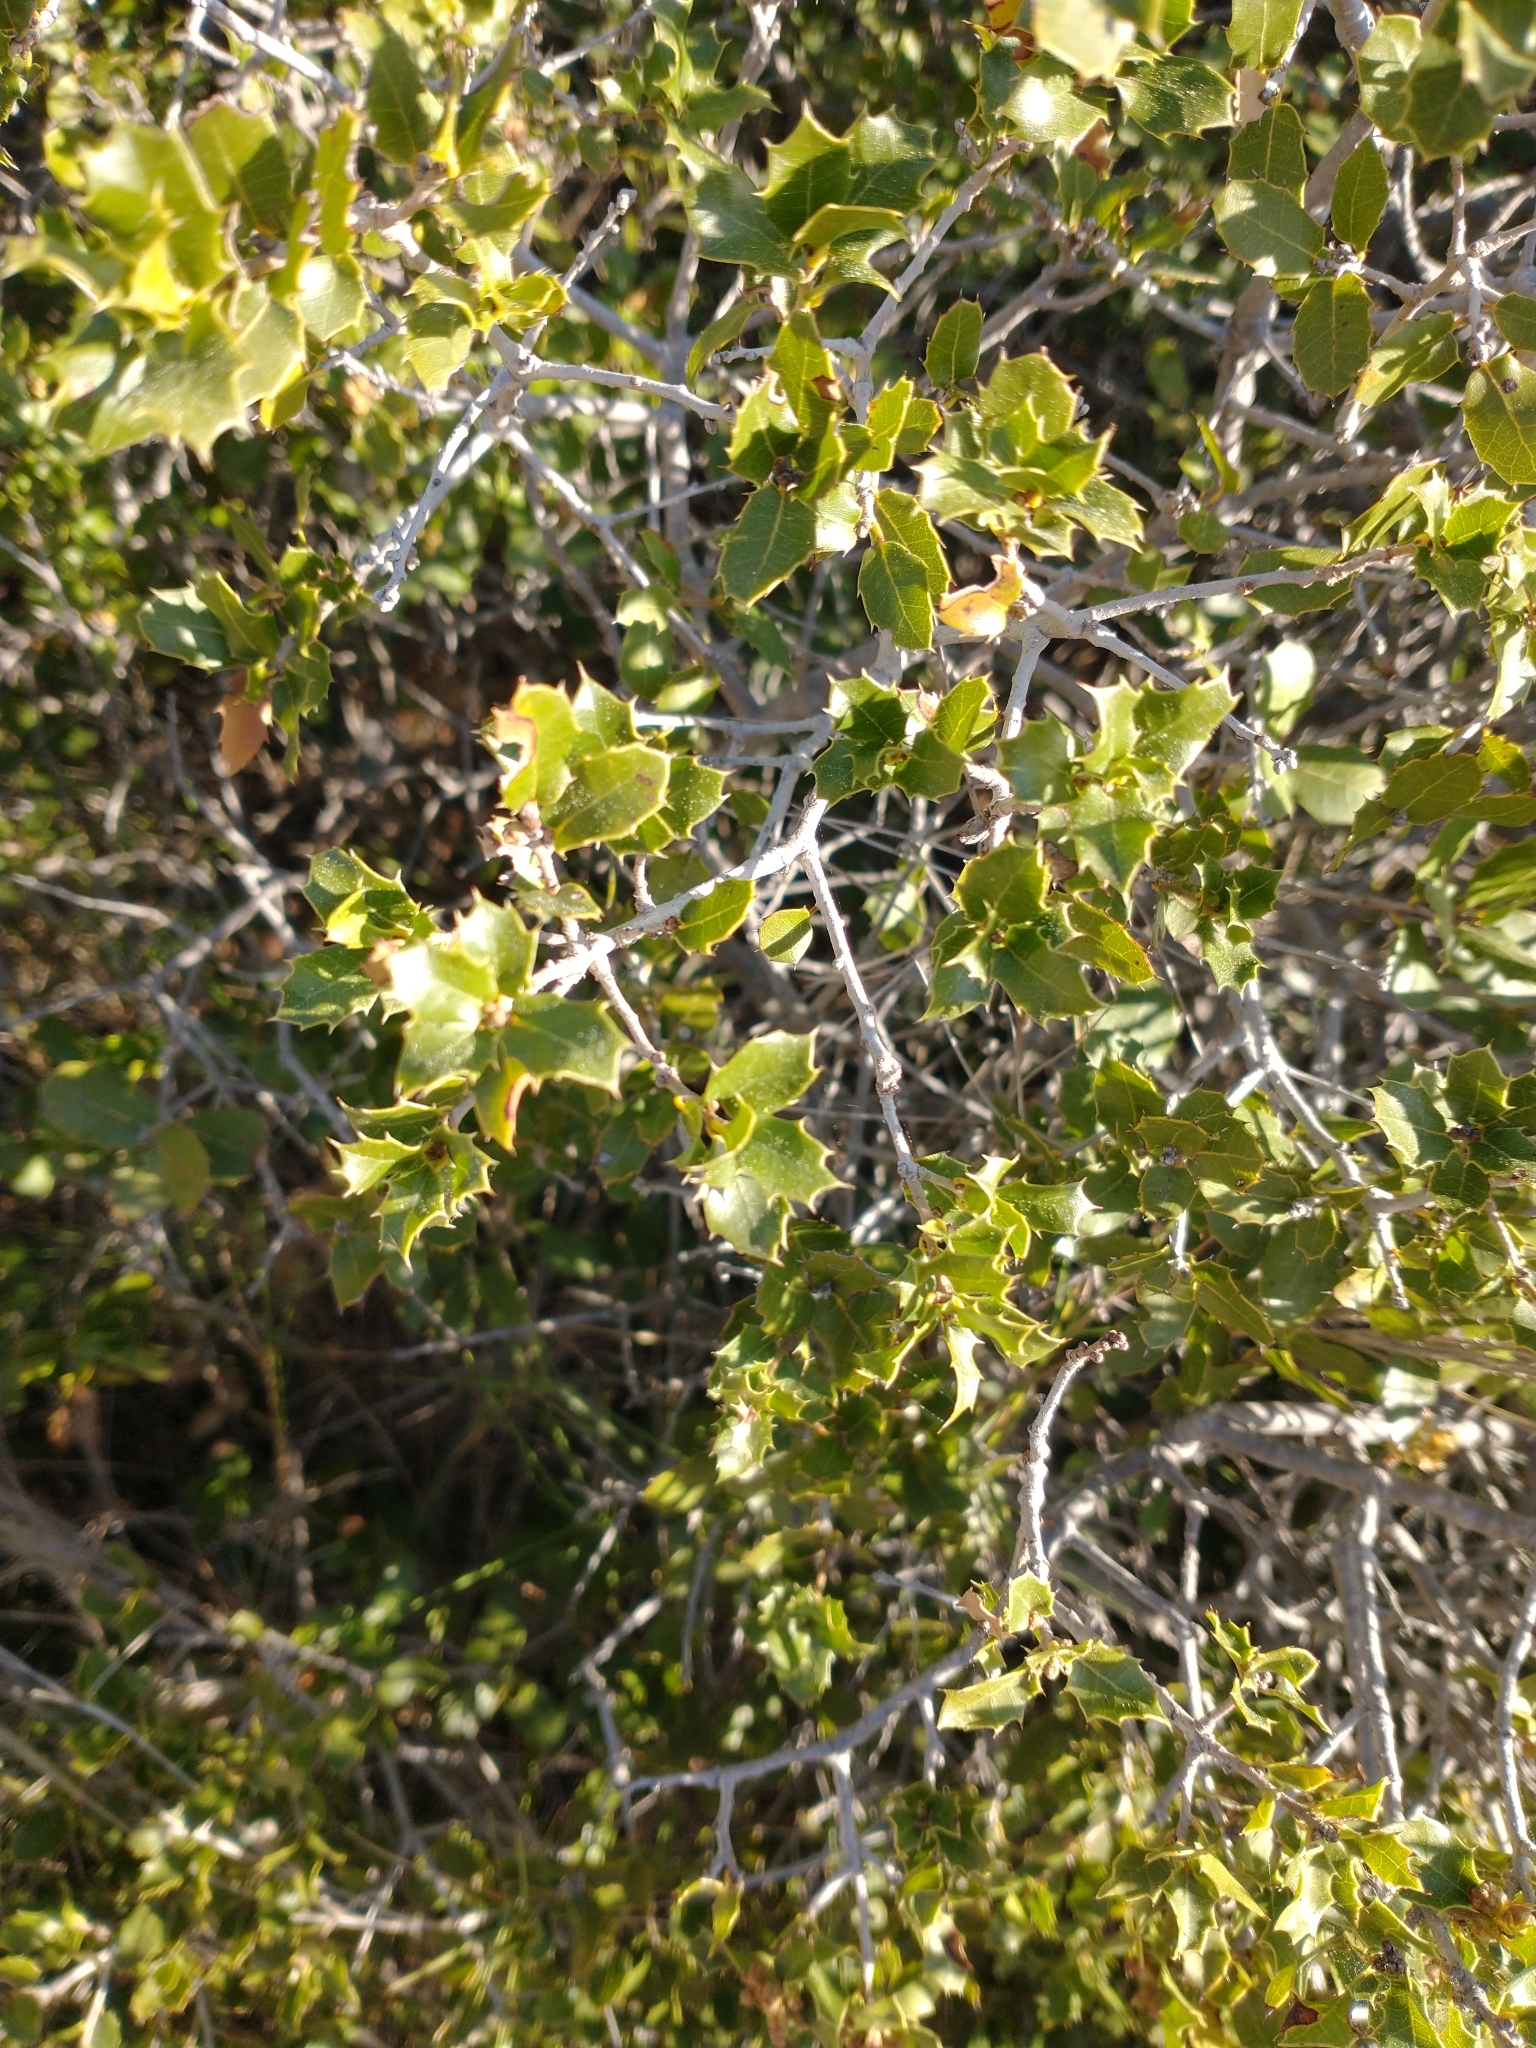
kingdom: Plantae
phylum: Tracheophyta
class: Magnoliopsida
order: Fagales
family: Fagaceae
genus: Quercus
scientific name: Quercus coccifera
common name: Kermes oak
